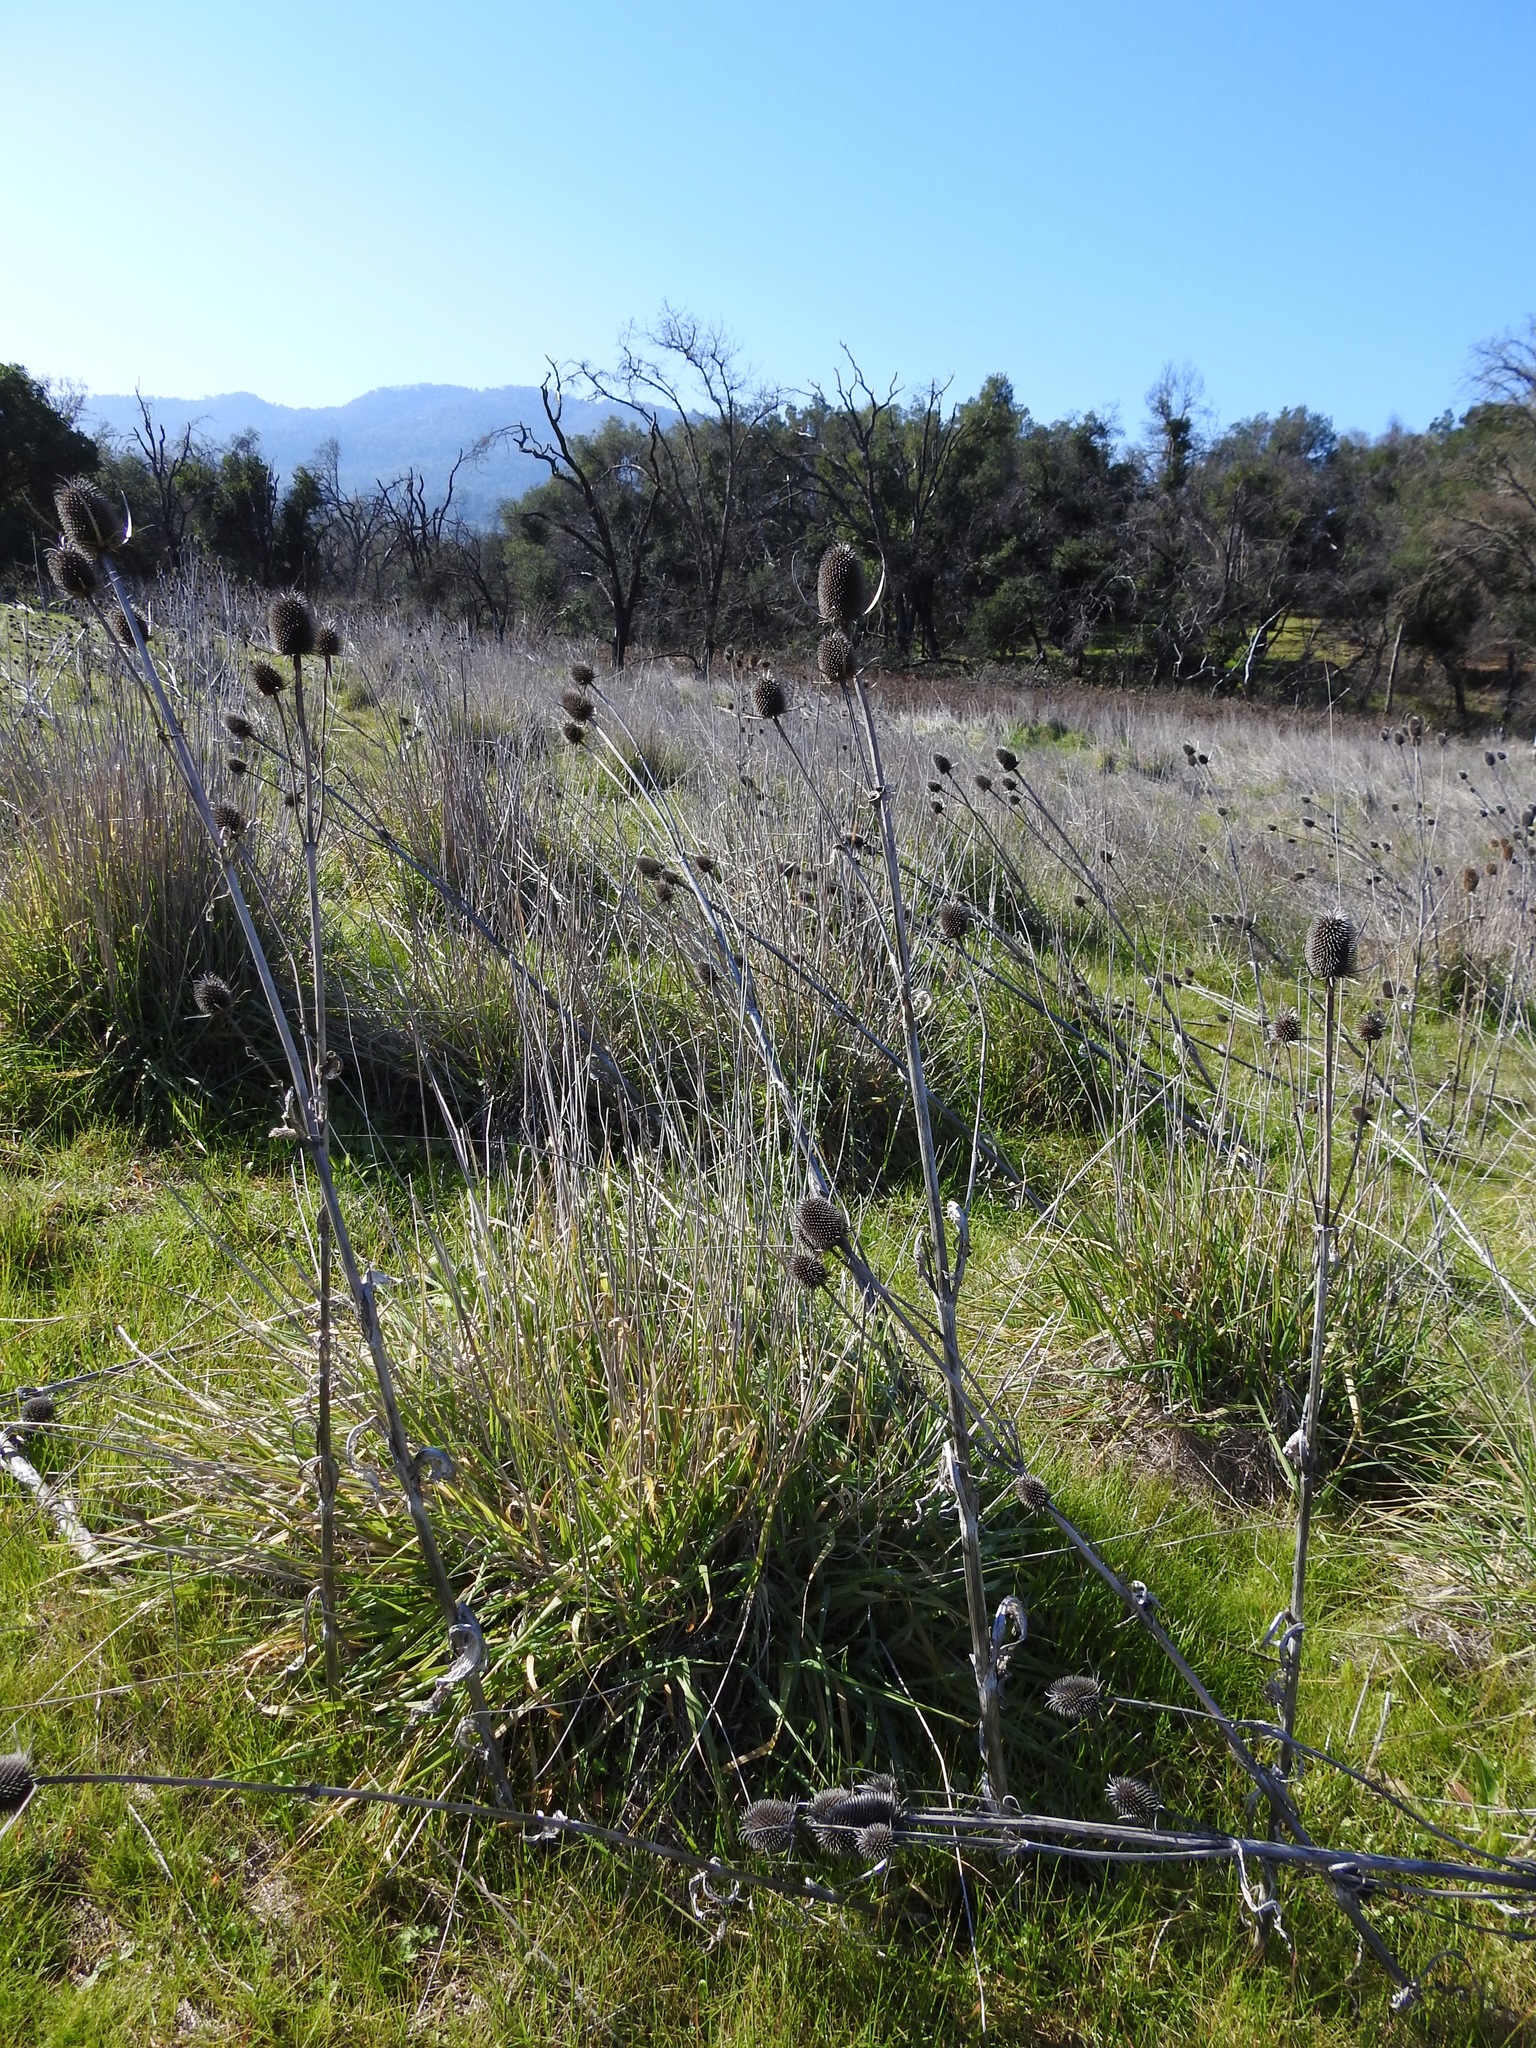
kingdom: Plantae
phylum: Tracheophyta
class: Magnoliopsida
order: Dipsacales
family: Caprifoliaceae
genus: Dipsacus
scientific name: Dipsacus sativus
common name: Fuller's teasel
